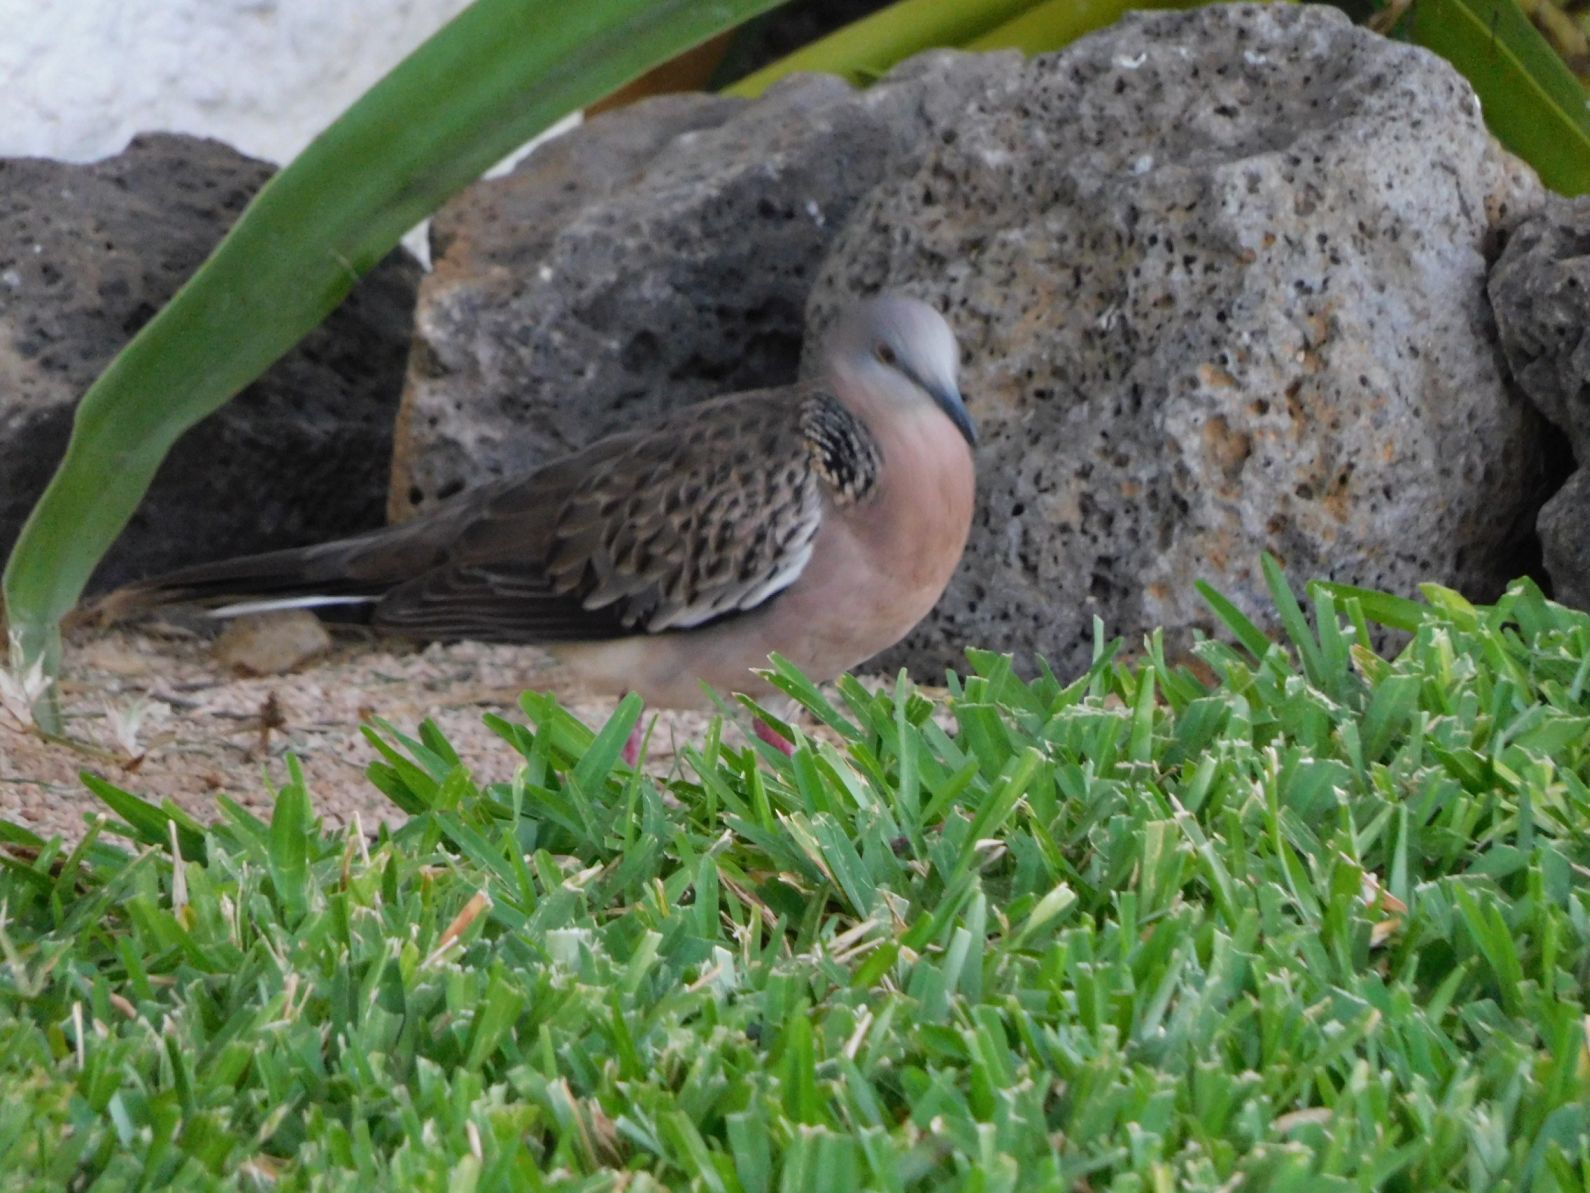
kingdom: Animalia
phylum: Chordata
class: Aves
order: Columbiformes
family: Columbidae
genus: Spilopelia
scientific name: Spilopelia chinensis
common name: Spotted dove
